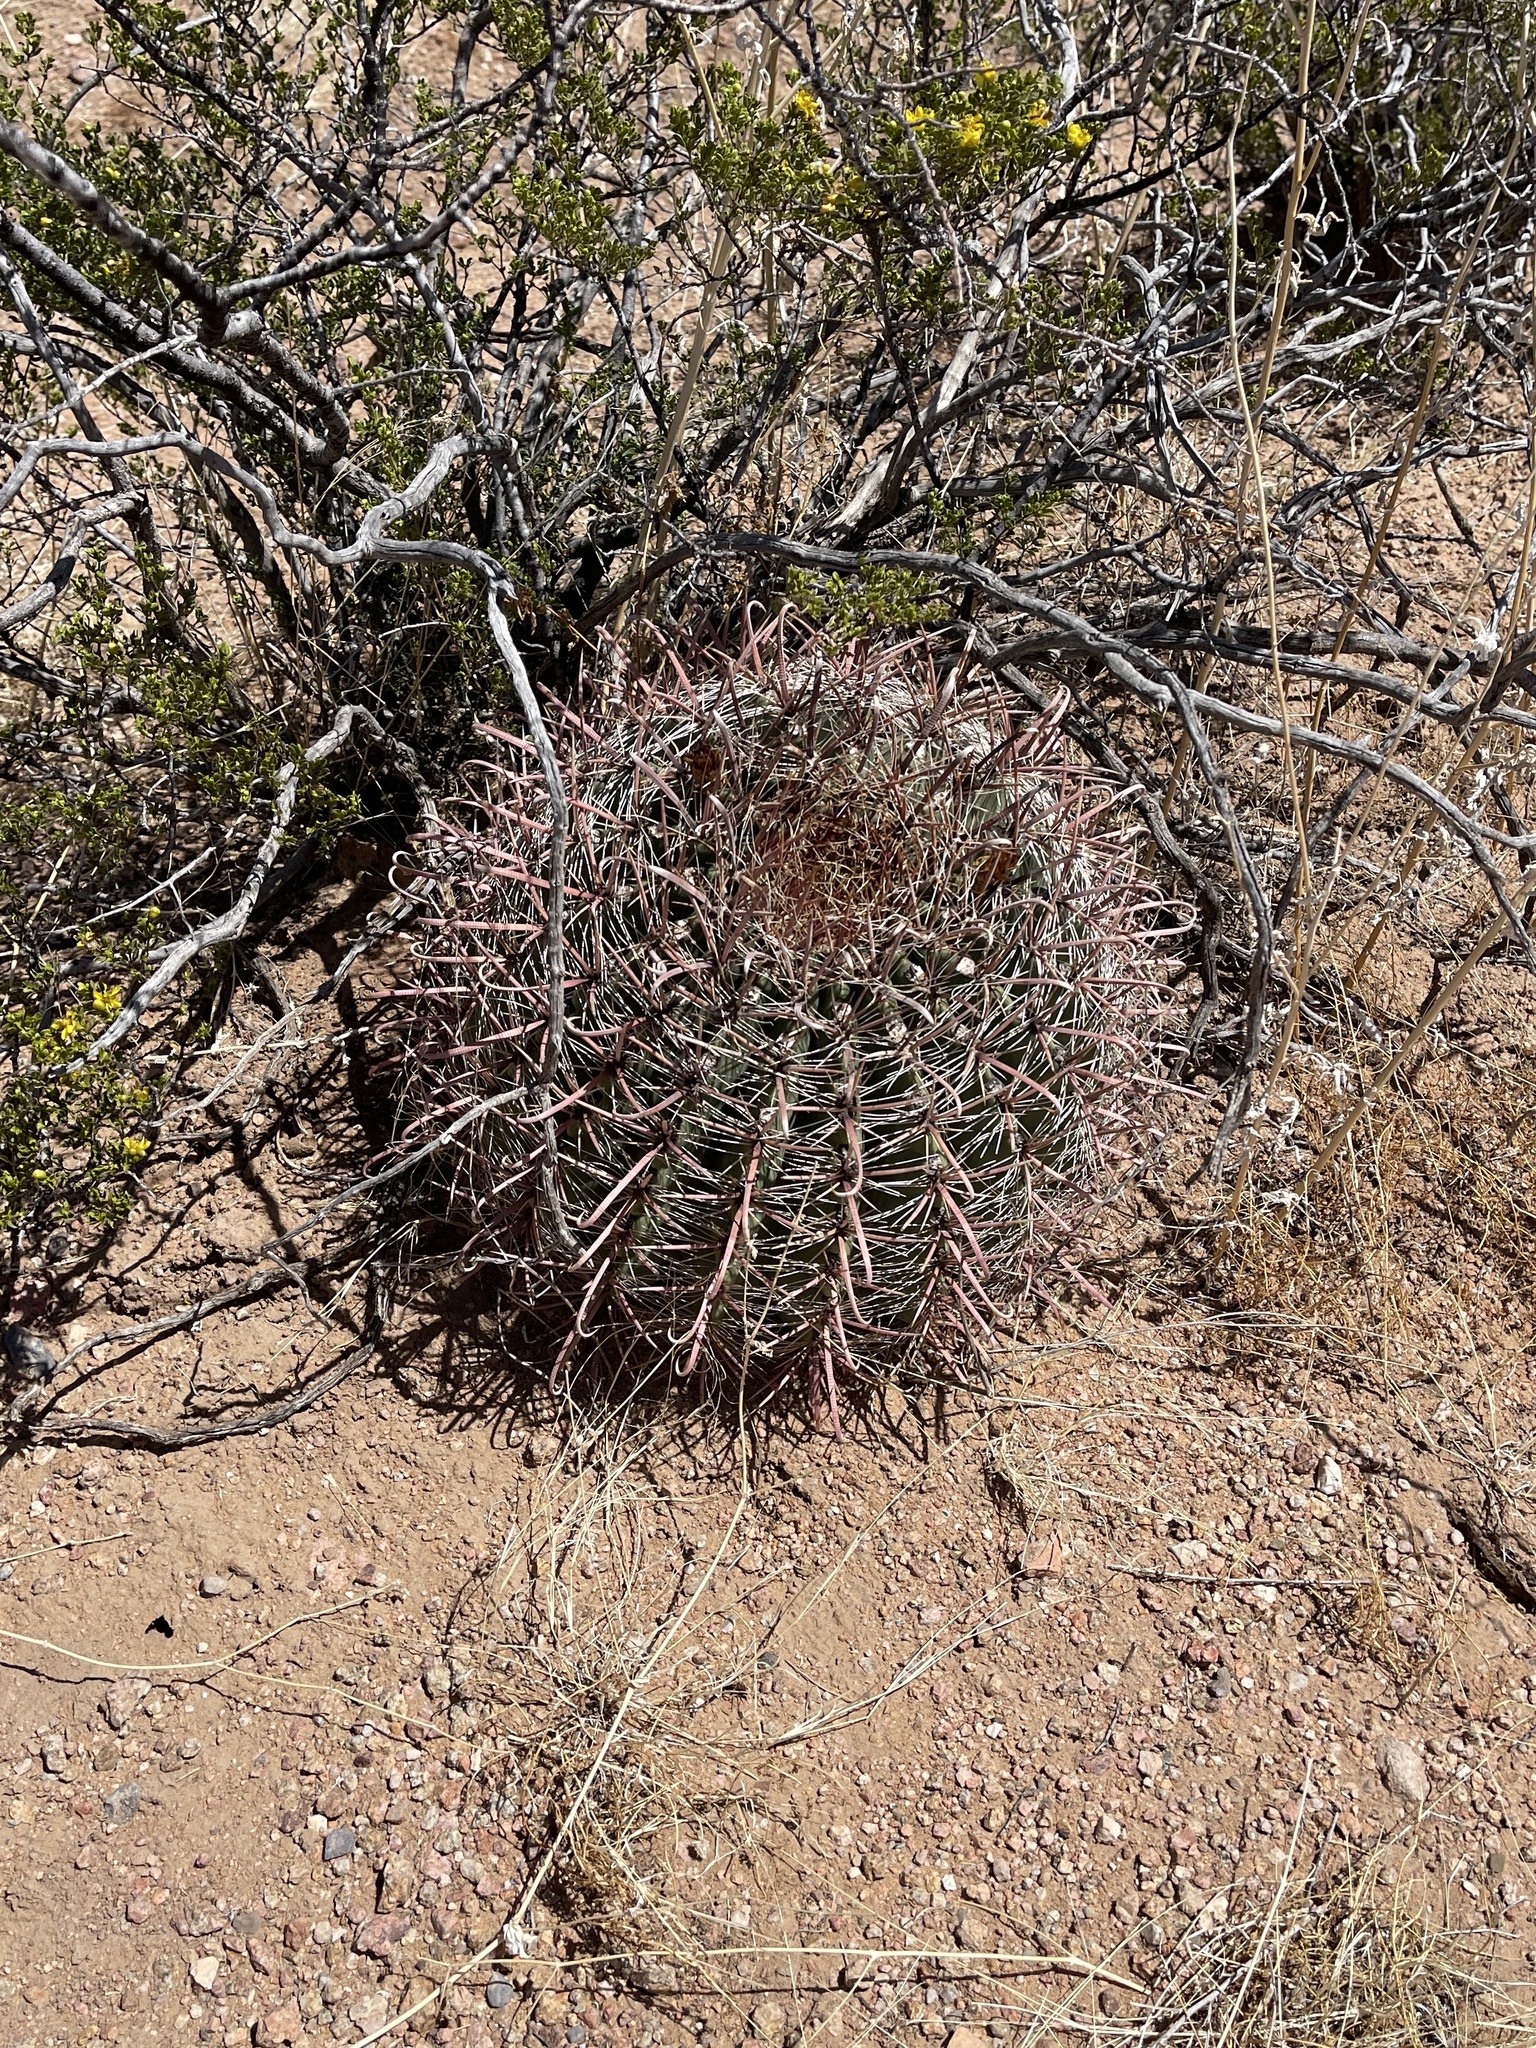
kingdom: Plantae
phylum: Tracheophyta
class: Magnoliopsida
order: Caryophyllales
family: Cactaceae
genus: Ferocactus
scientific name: Ferocactus wislizeni
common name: Candy barrel cactus
